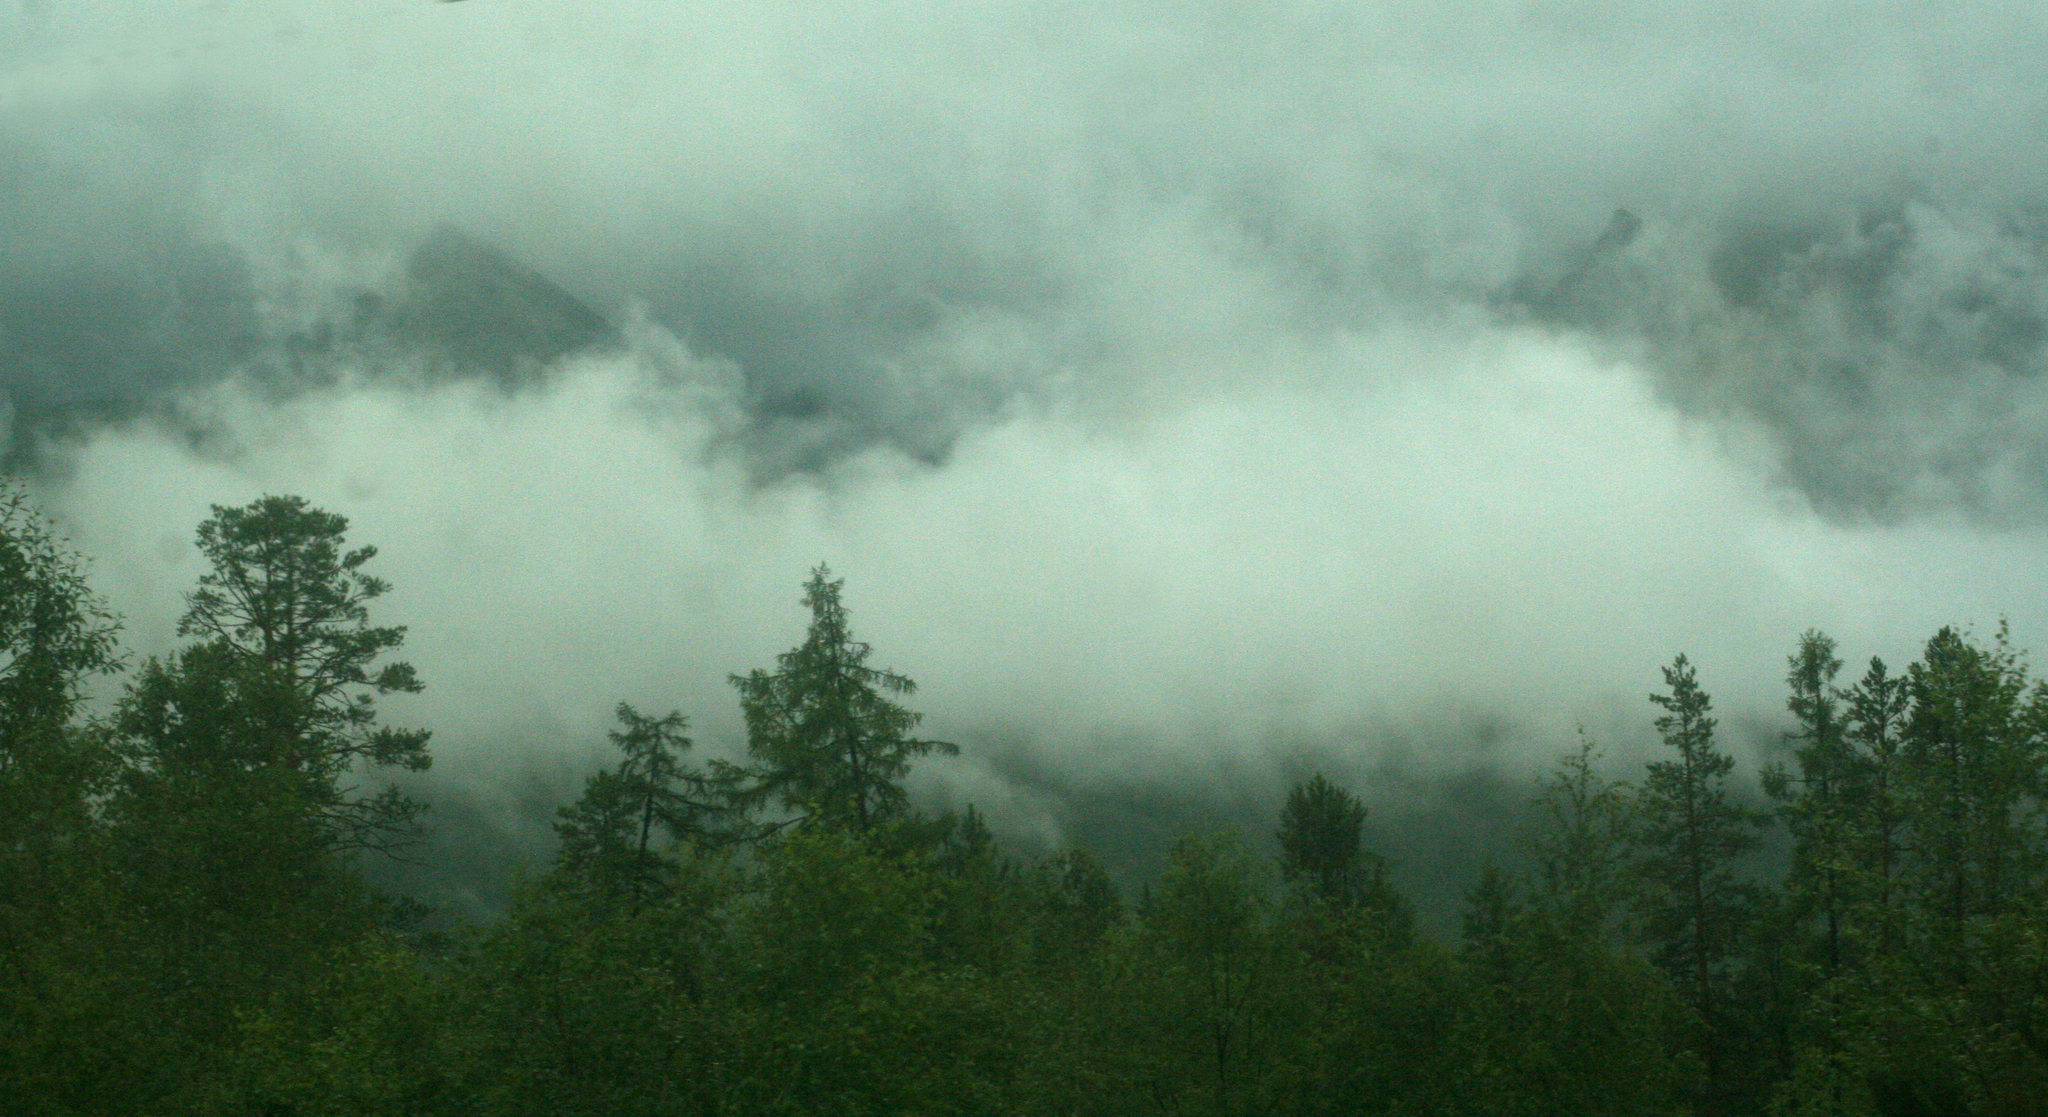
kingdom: Plantae
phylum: Tracheophyta
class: Pinopsida
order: Pinales
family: Pinaceae
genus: Larix
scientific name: Larix gmelinii
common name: Dahurian larch
